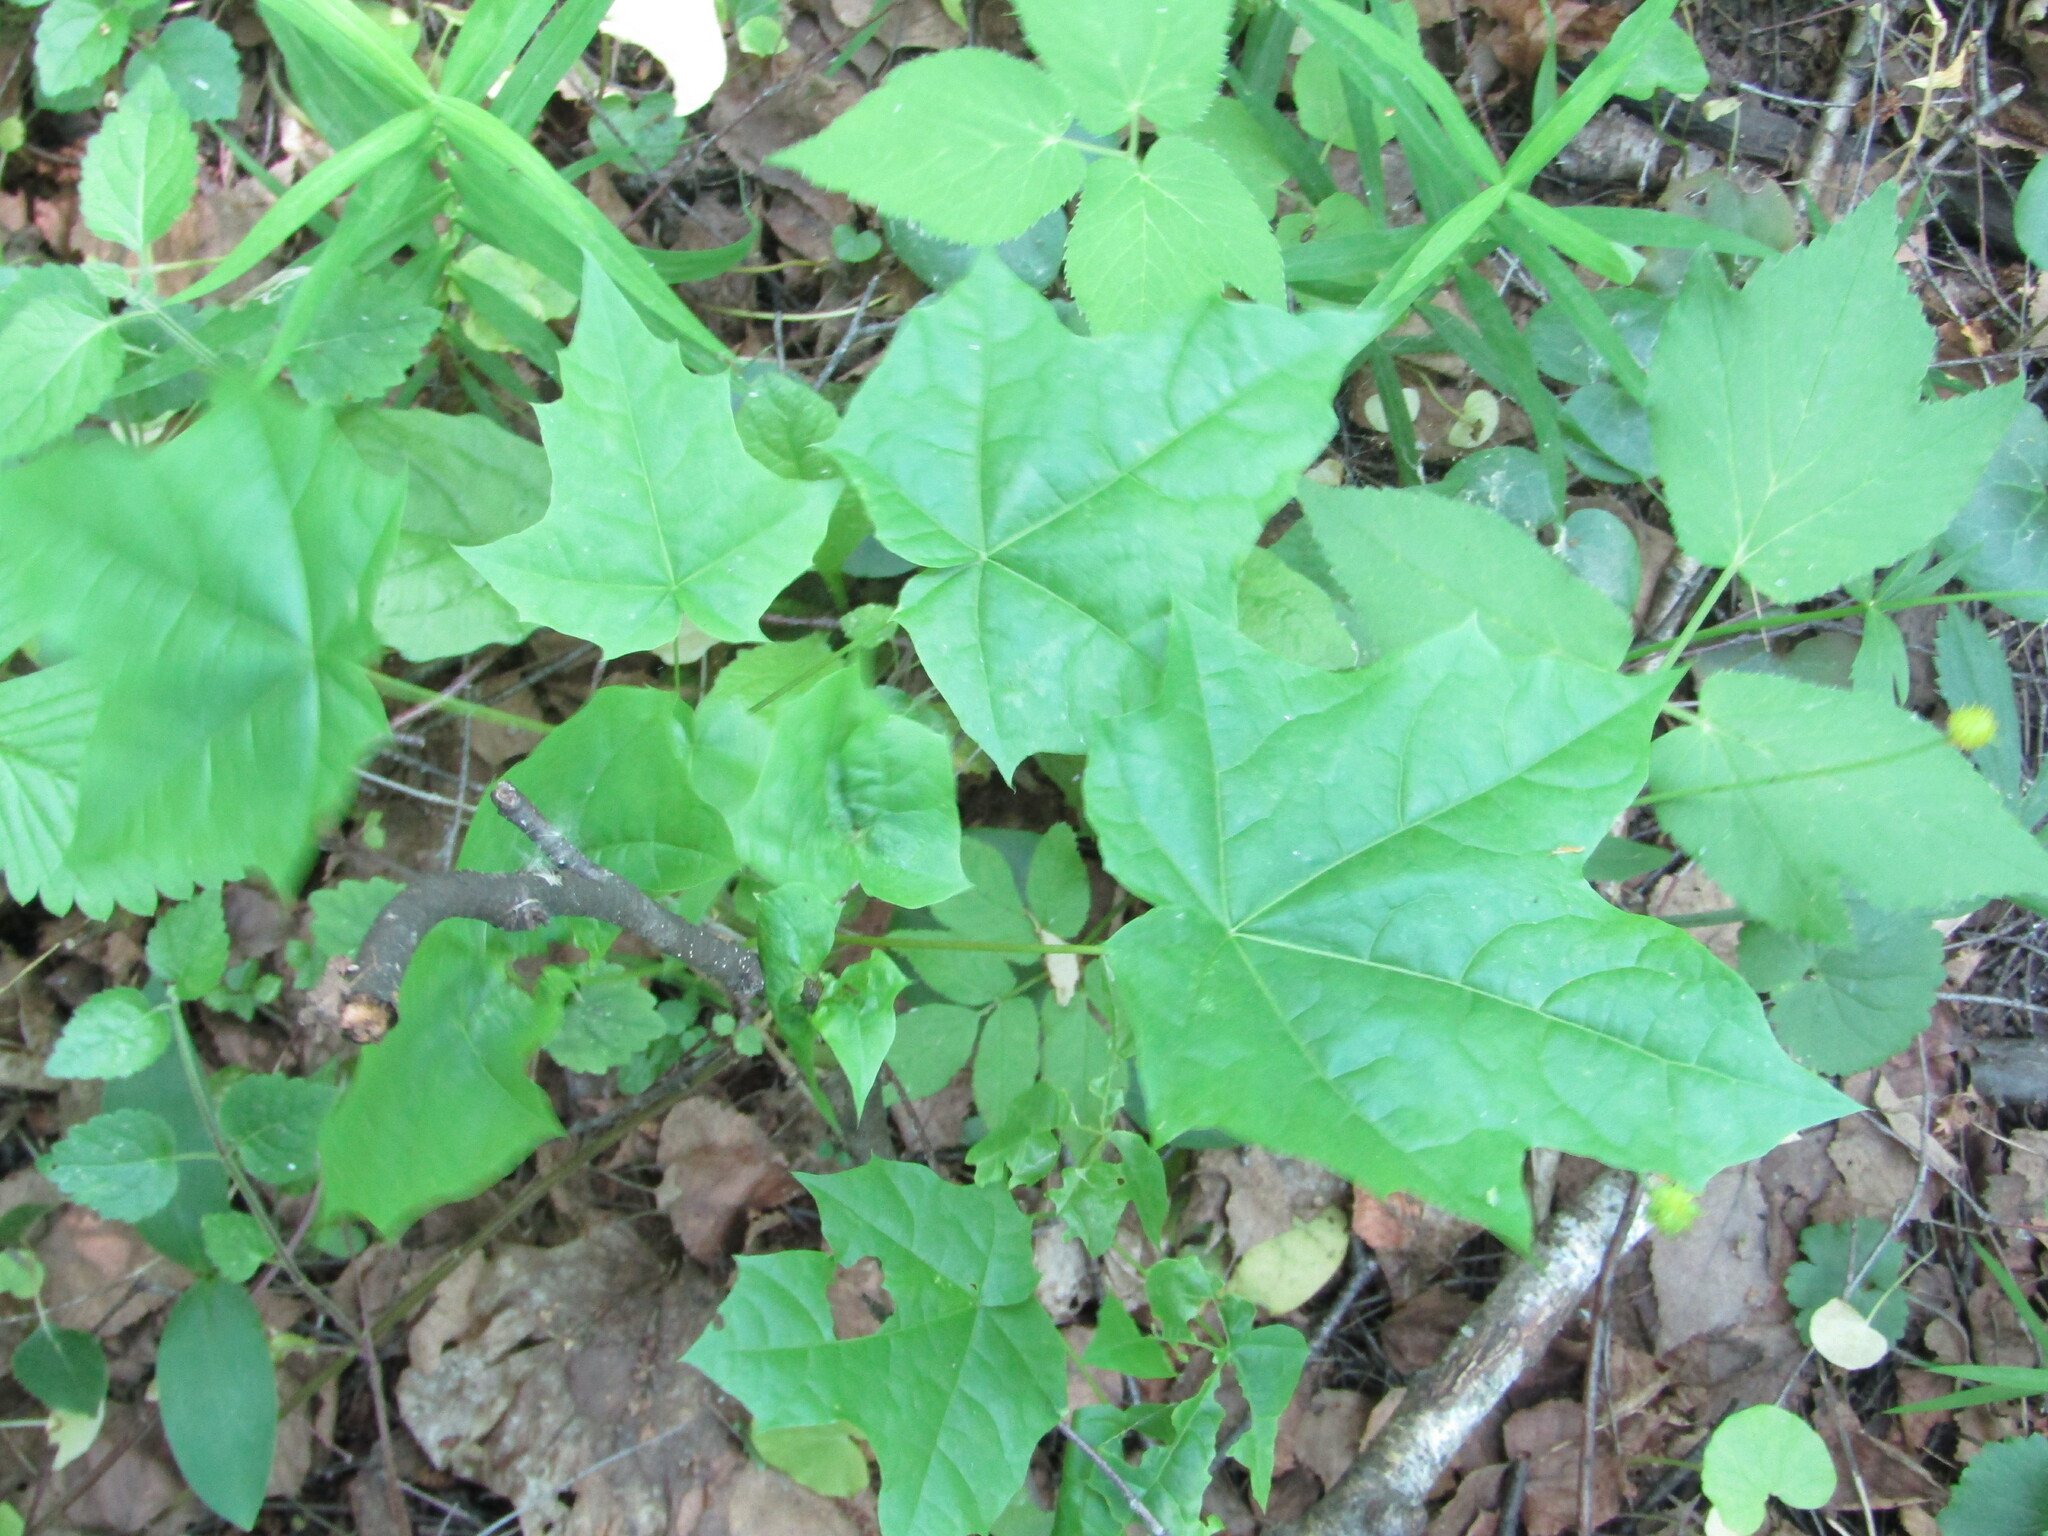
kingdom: Plantae
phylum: Tracheophyta
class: Magnoliopsida
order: Sapindales
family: Sapindaceae
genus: Acer
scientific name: Acer platanoides
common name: Norway maple
